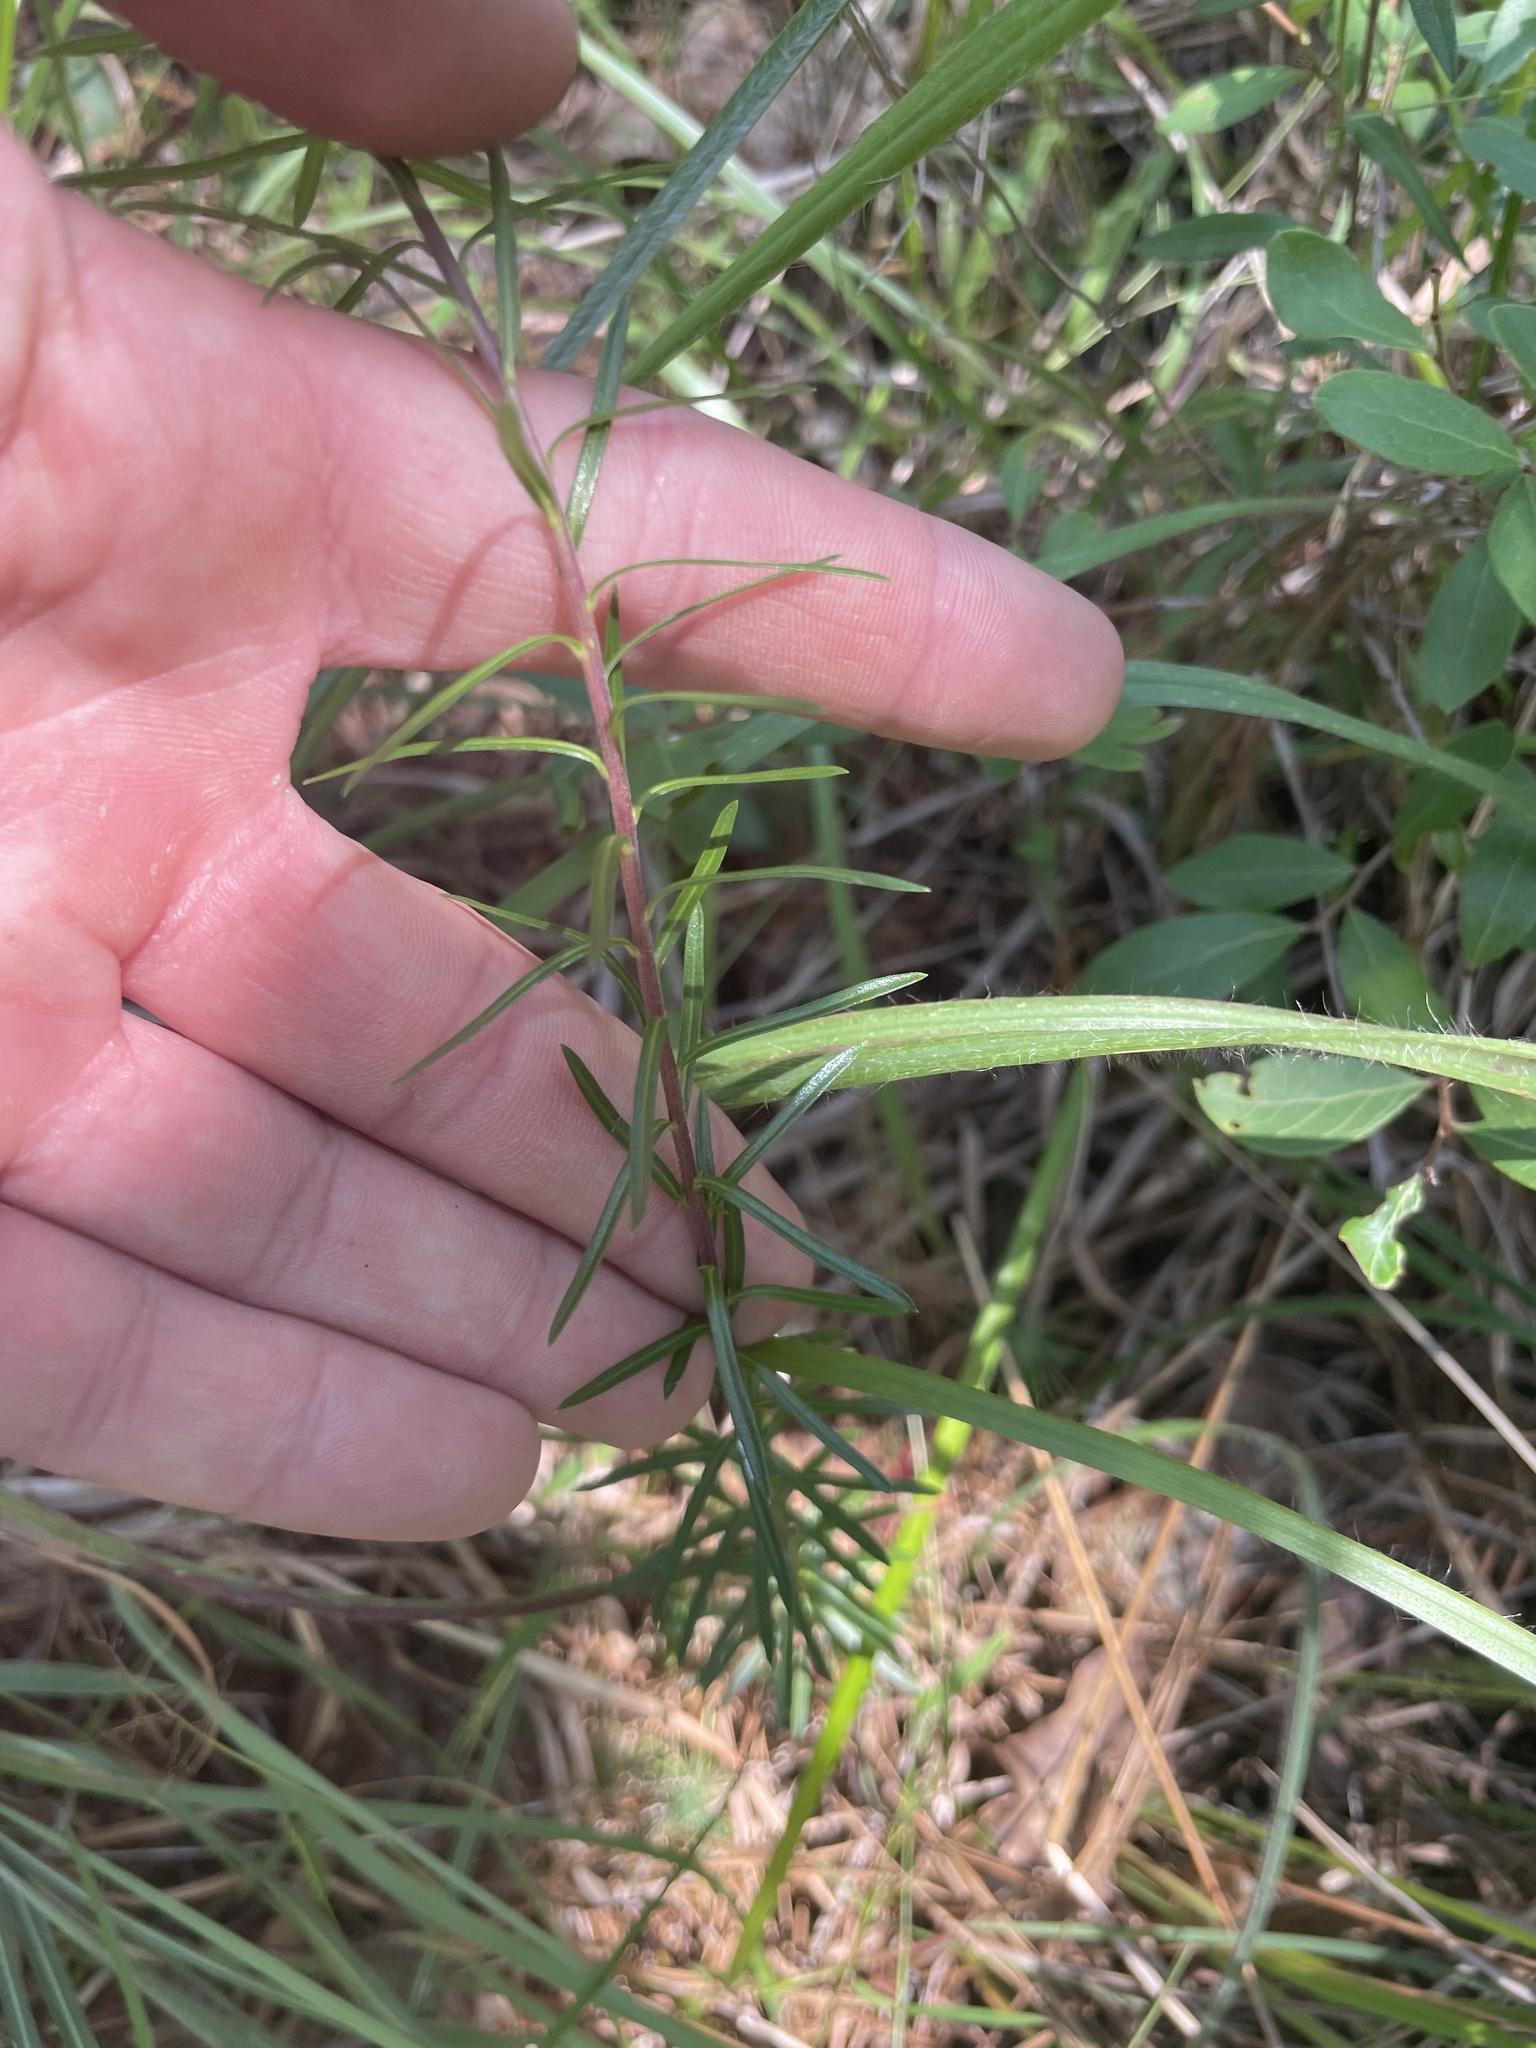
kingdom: Plantae
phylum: Tracheophyta
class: Magnoliopsida
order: Asterales
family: Asteraceae
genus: Ionactis
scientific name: Ionactis repens
